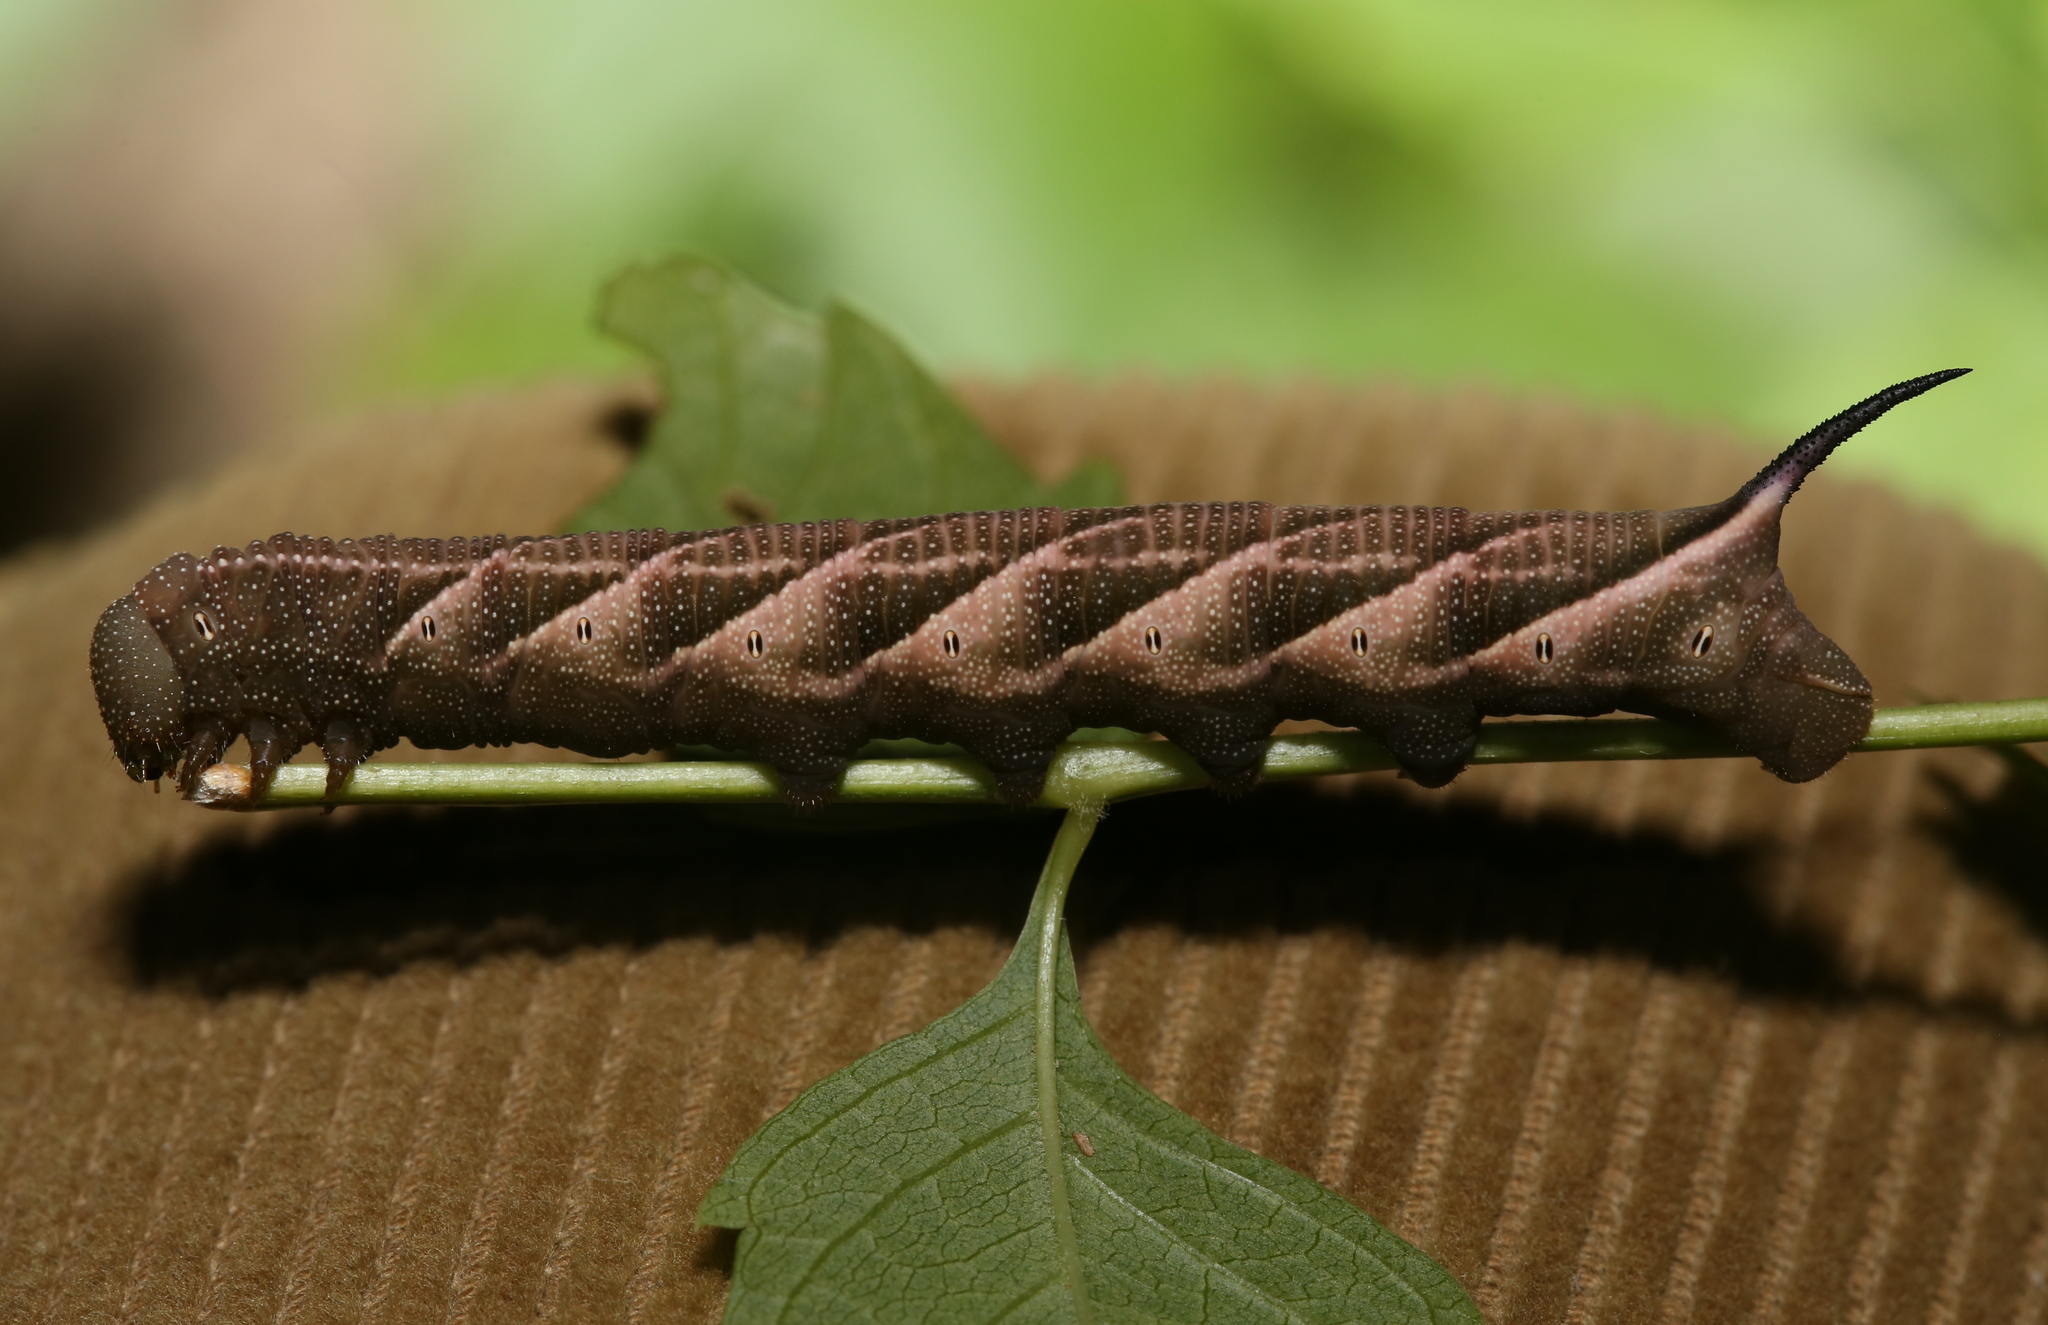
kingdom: Animalia
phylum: Arthropoda
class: Insecta
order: Lepidoptera
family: Sphingidae
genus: Paratrea
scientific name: Paratrea plebeja
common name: Plebian sphinx
